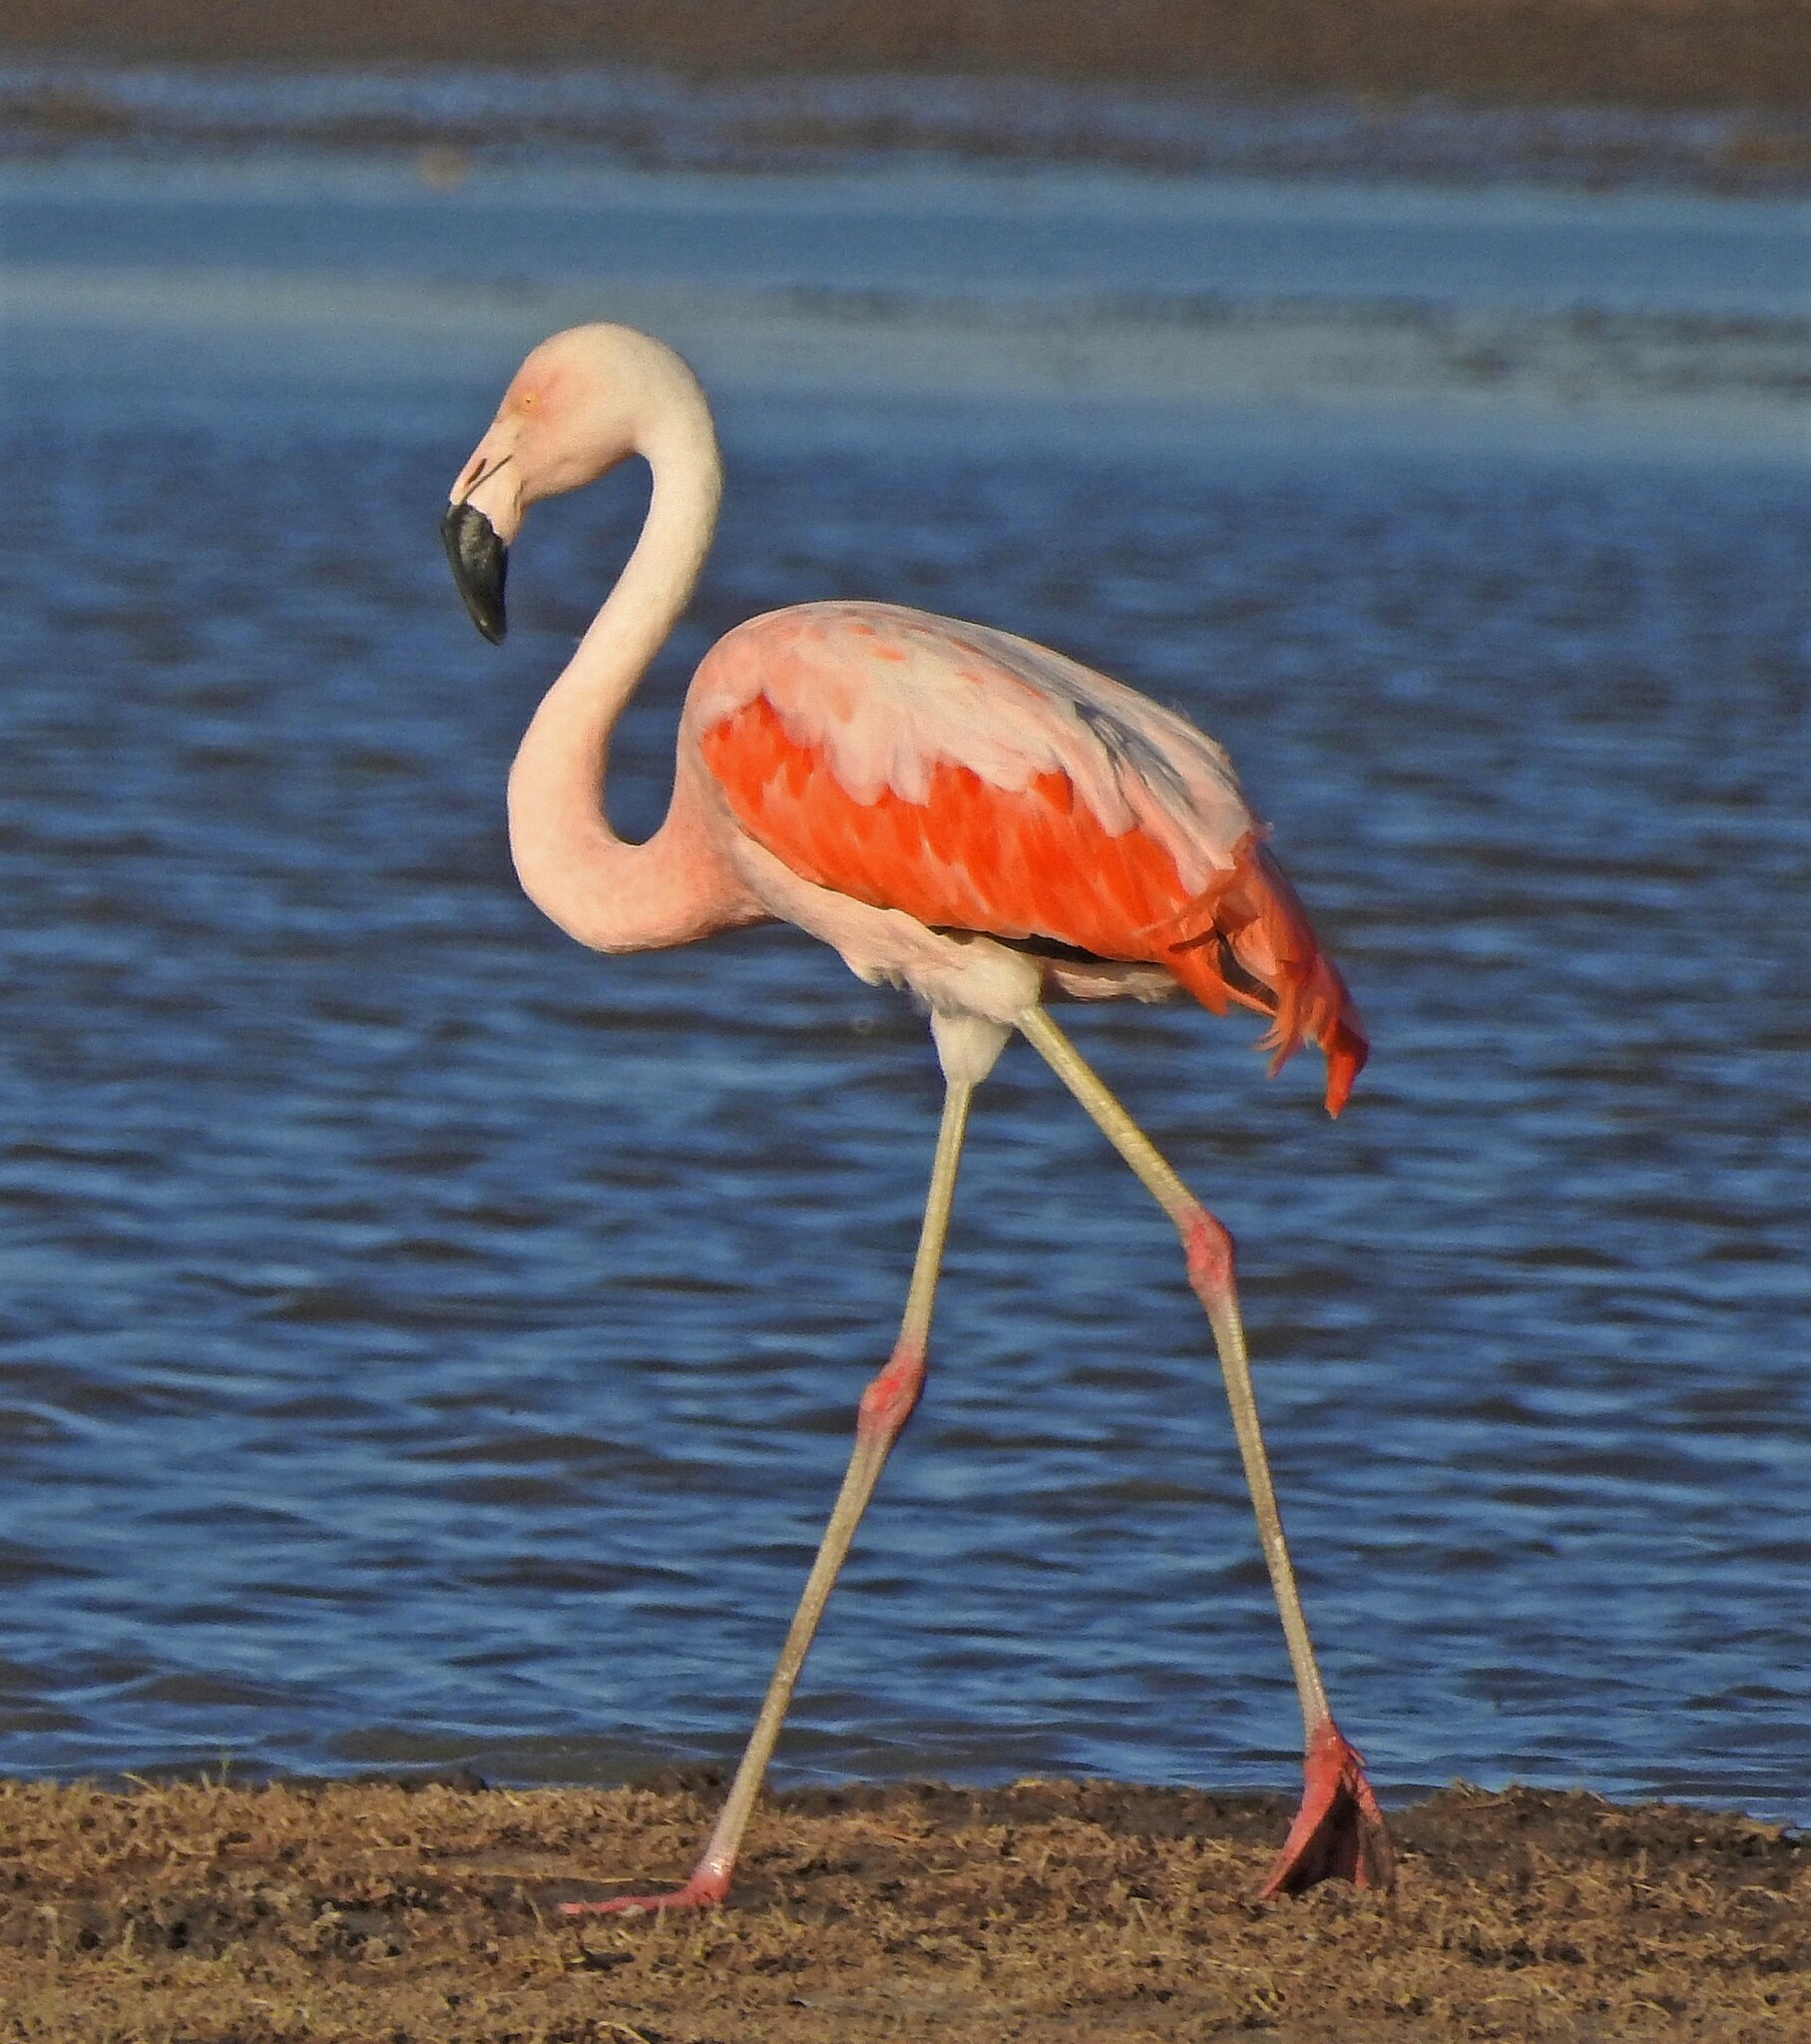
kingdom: Animalia
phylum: Chordata
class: Aves
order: Phoenicopteriformes
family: Phoenicopteridae
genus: Phoenicopterus
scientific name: Phoenicopterus chilensis
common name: Chilean flamingo
